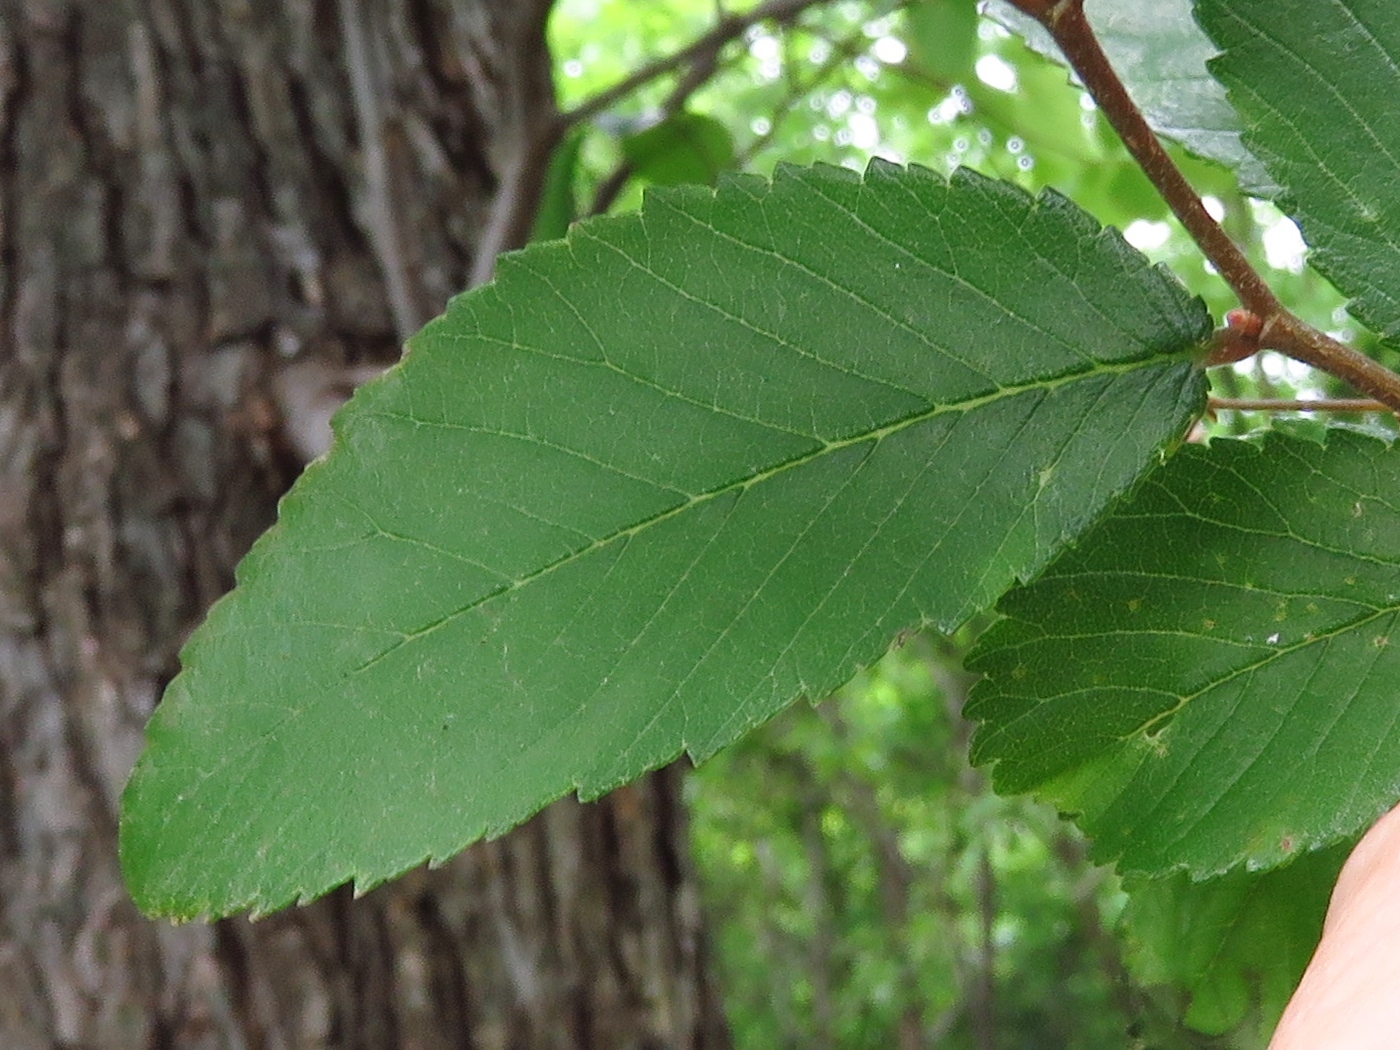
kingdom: Plantae
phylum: Tracheophyta
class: Magnoliopsida
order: Rosales
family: Ulmaceae
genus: Ulmus
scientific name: Ulmus crassifolia
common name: Basket elm
